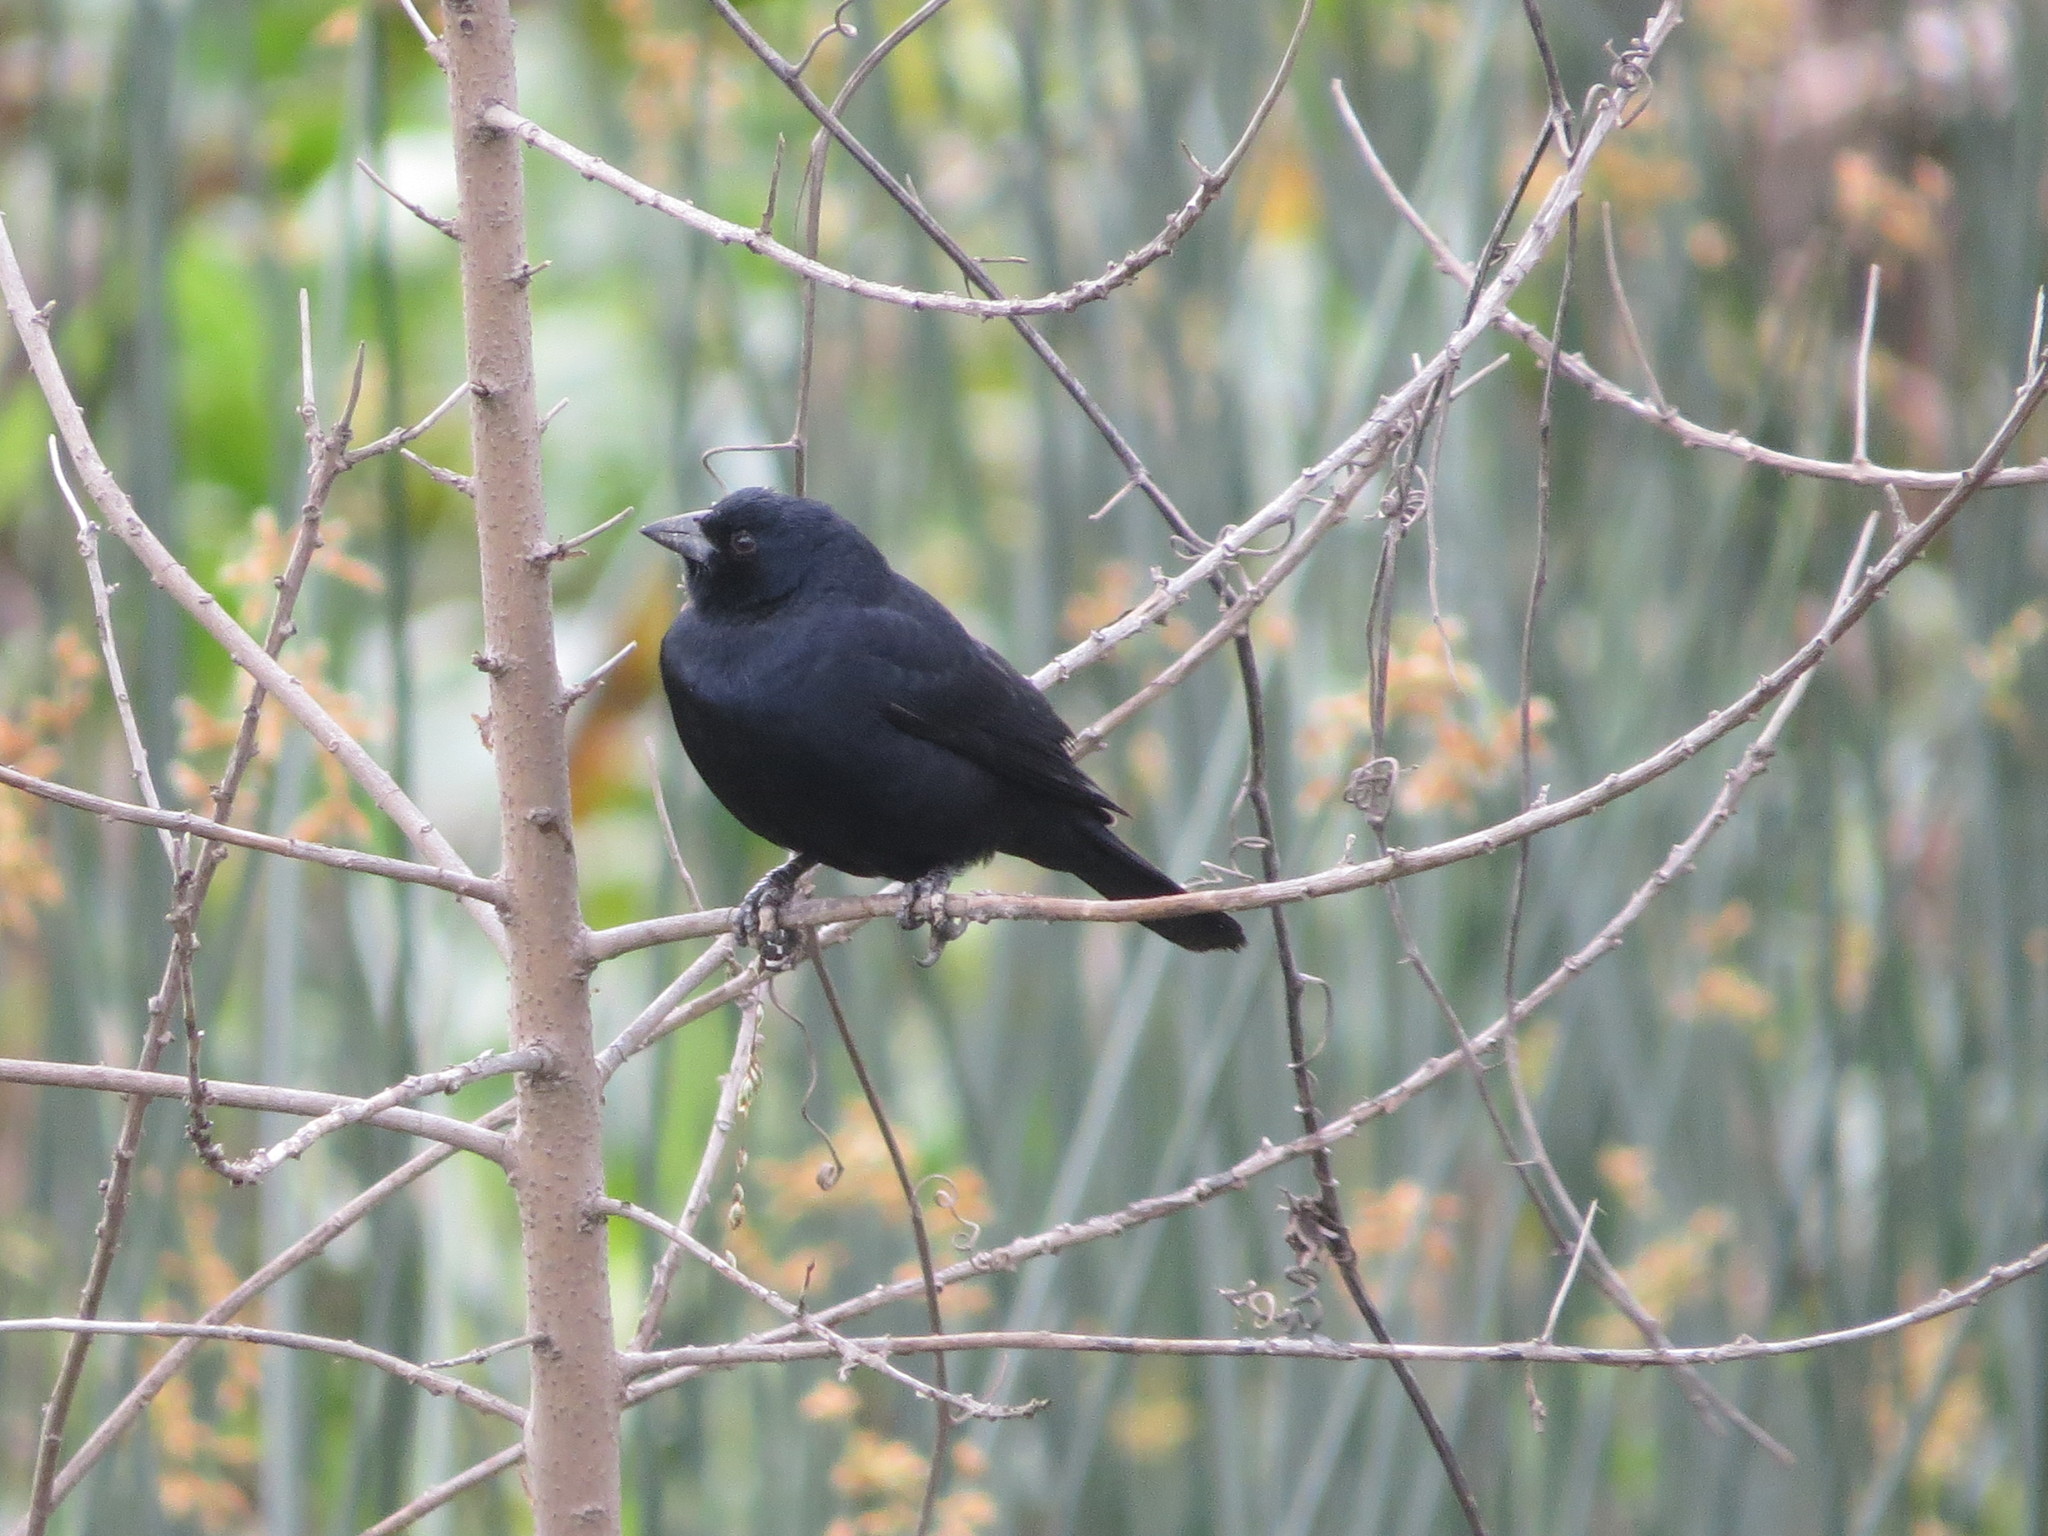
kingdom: Animalia
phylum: Chordata
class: Aves
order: Passeriformes
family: Icteridae
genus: Molothrus
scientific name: Molothrus rufoaxillaris
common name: Screaming cowbird
